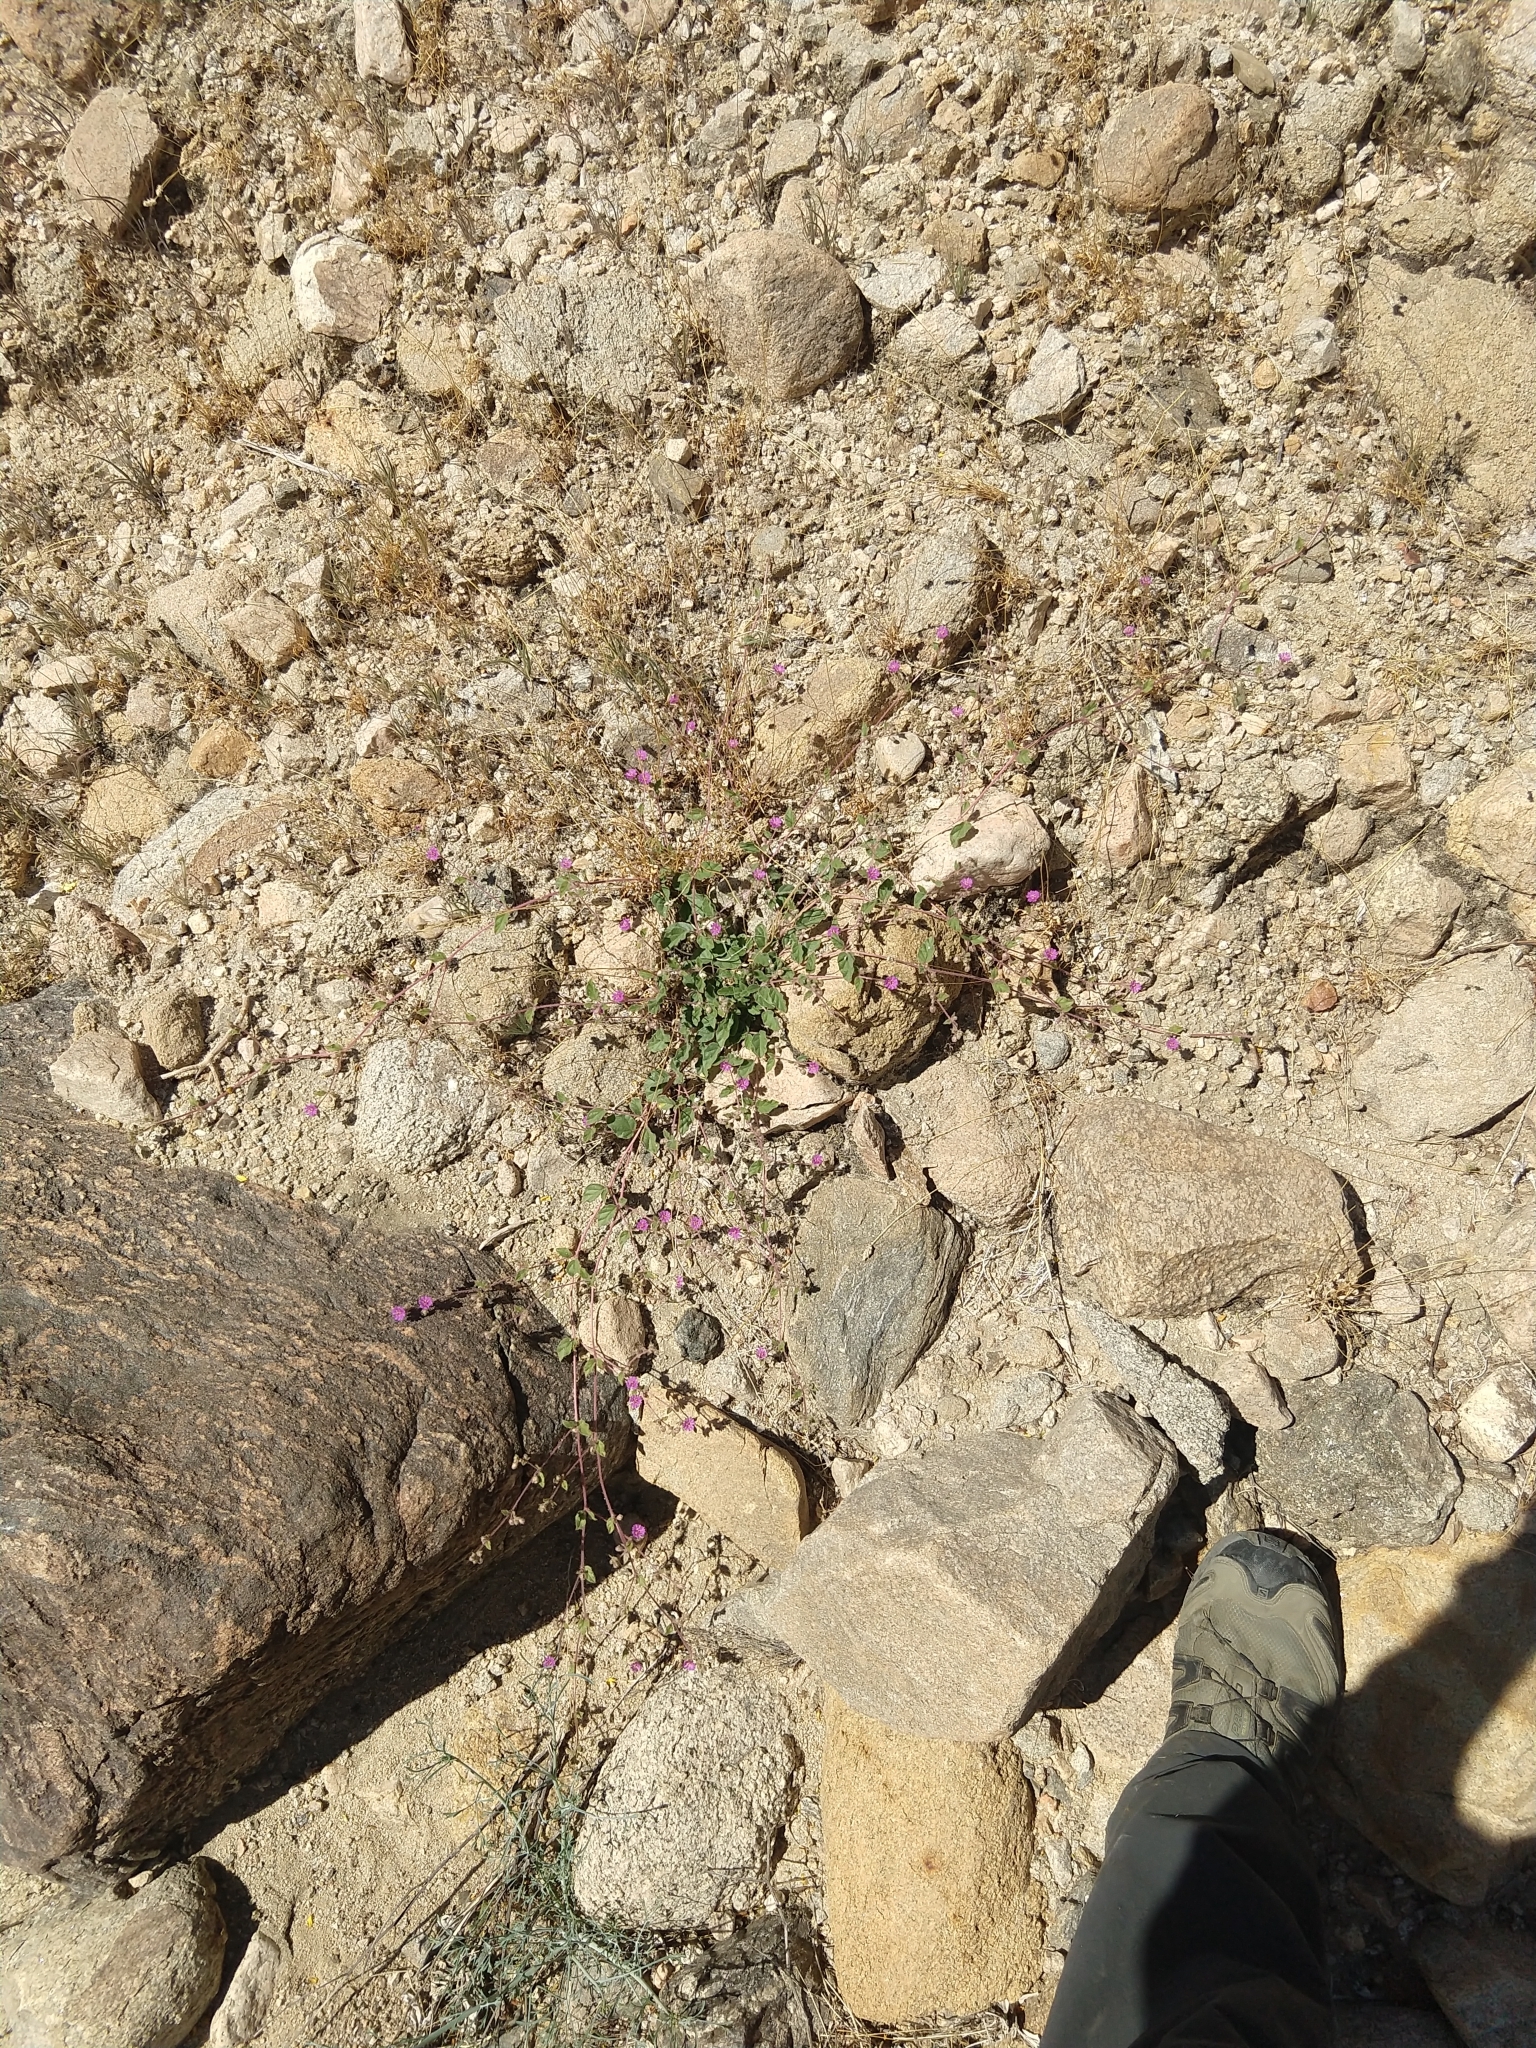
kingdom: Plantae
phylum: Tracheophyta
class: Magnoliopsida
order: Caryophyllales
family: Nyctaginaceae
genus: Allionia
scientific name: Allionia incarnata
